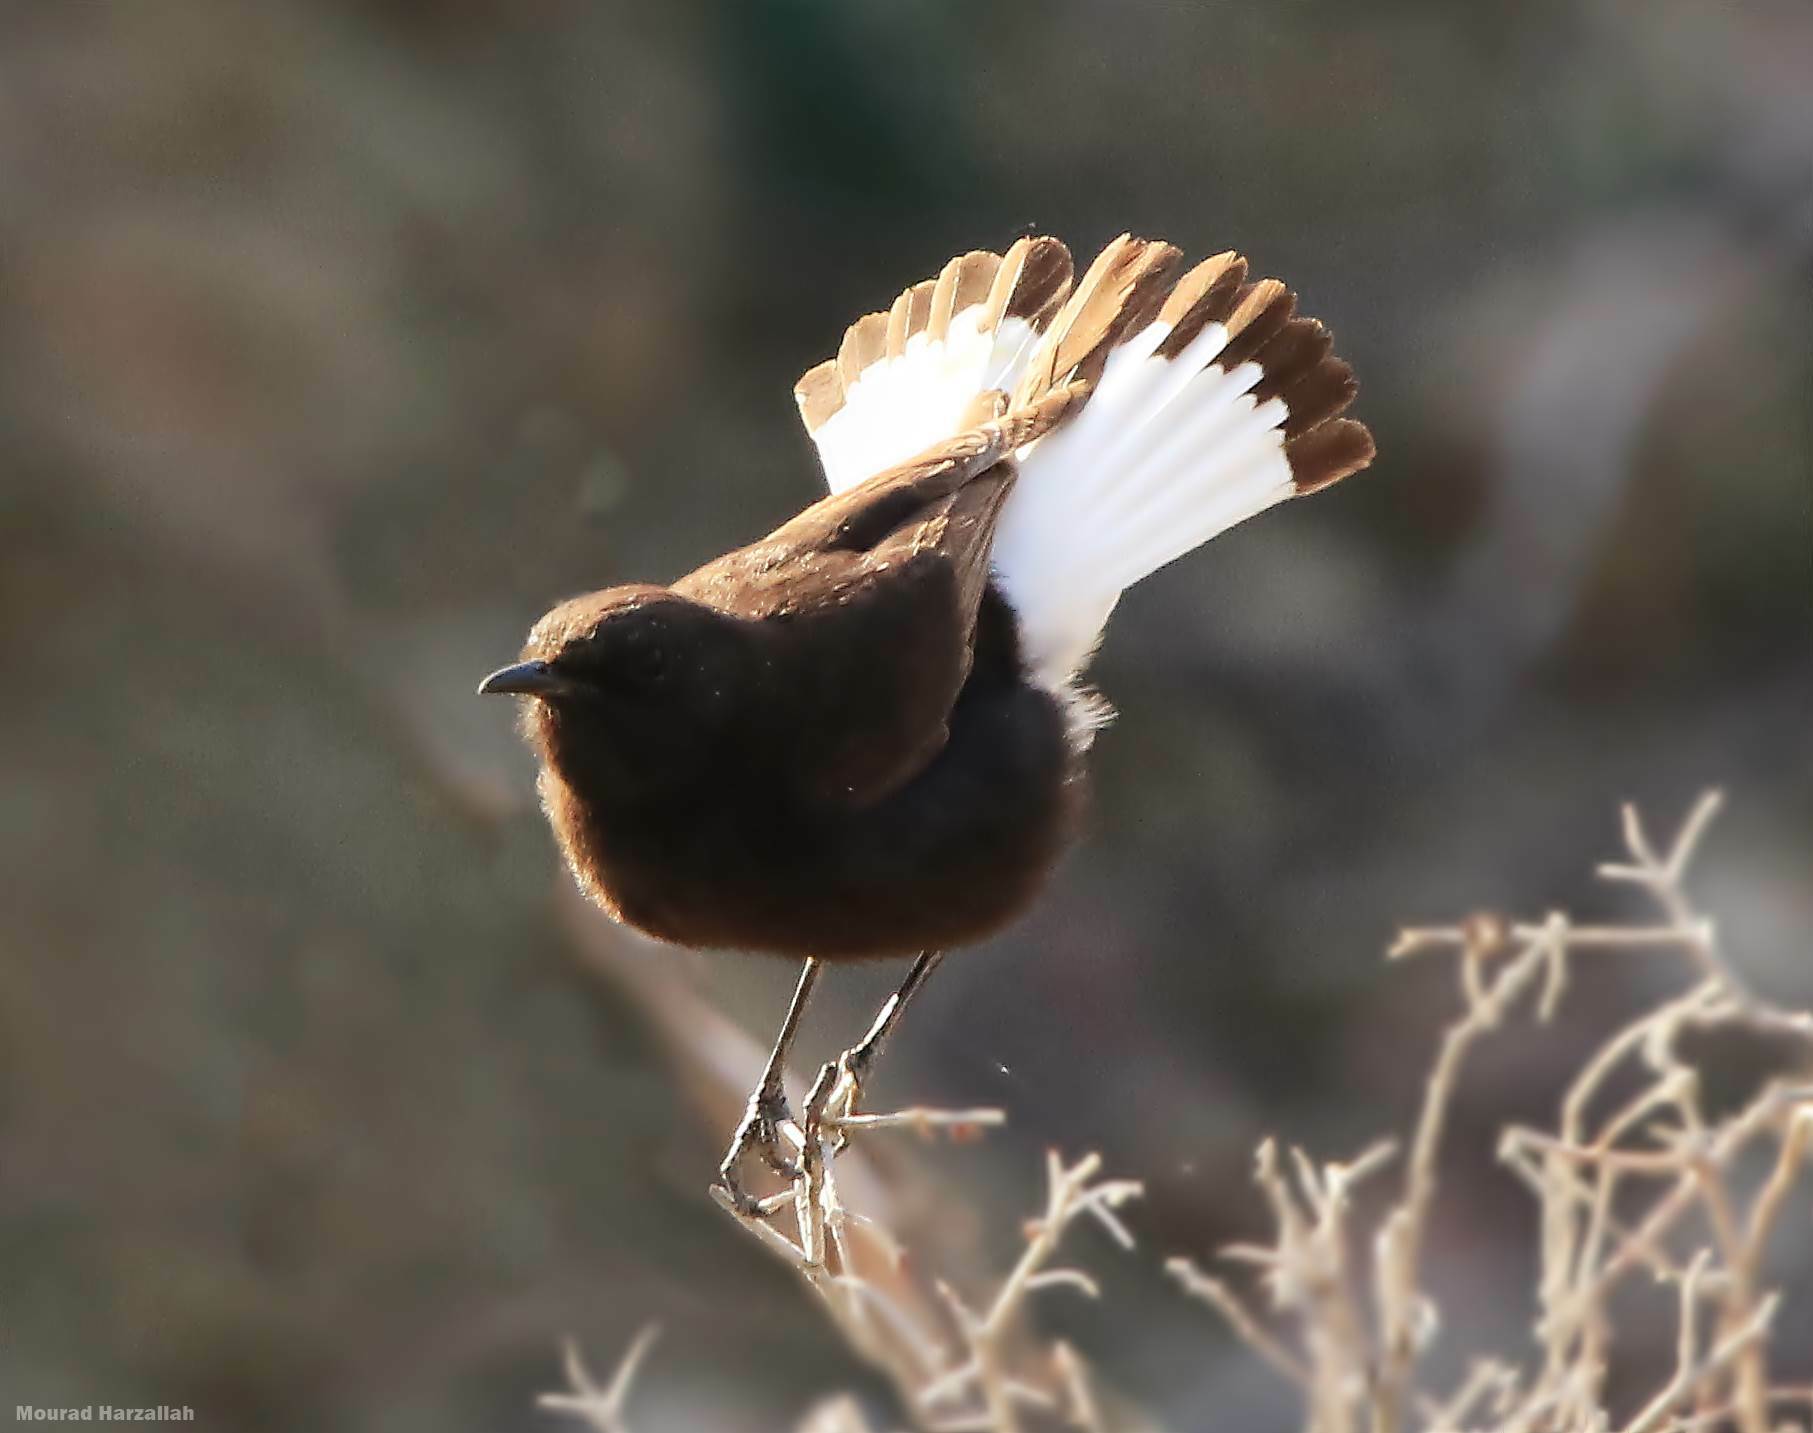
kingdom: Animalia
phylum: Chordata
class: Aves
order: Passeriformes
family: Muscicapidae
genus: Oenanthe
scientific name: Oenanthe leucura
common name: Black wheatear
